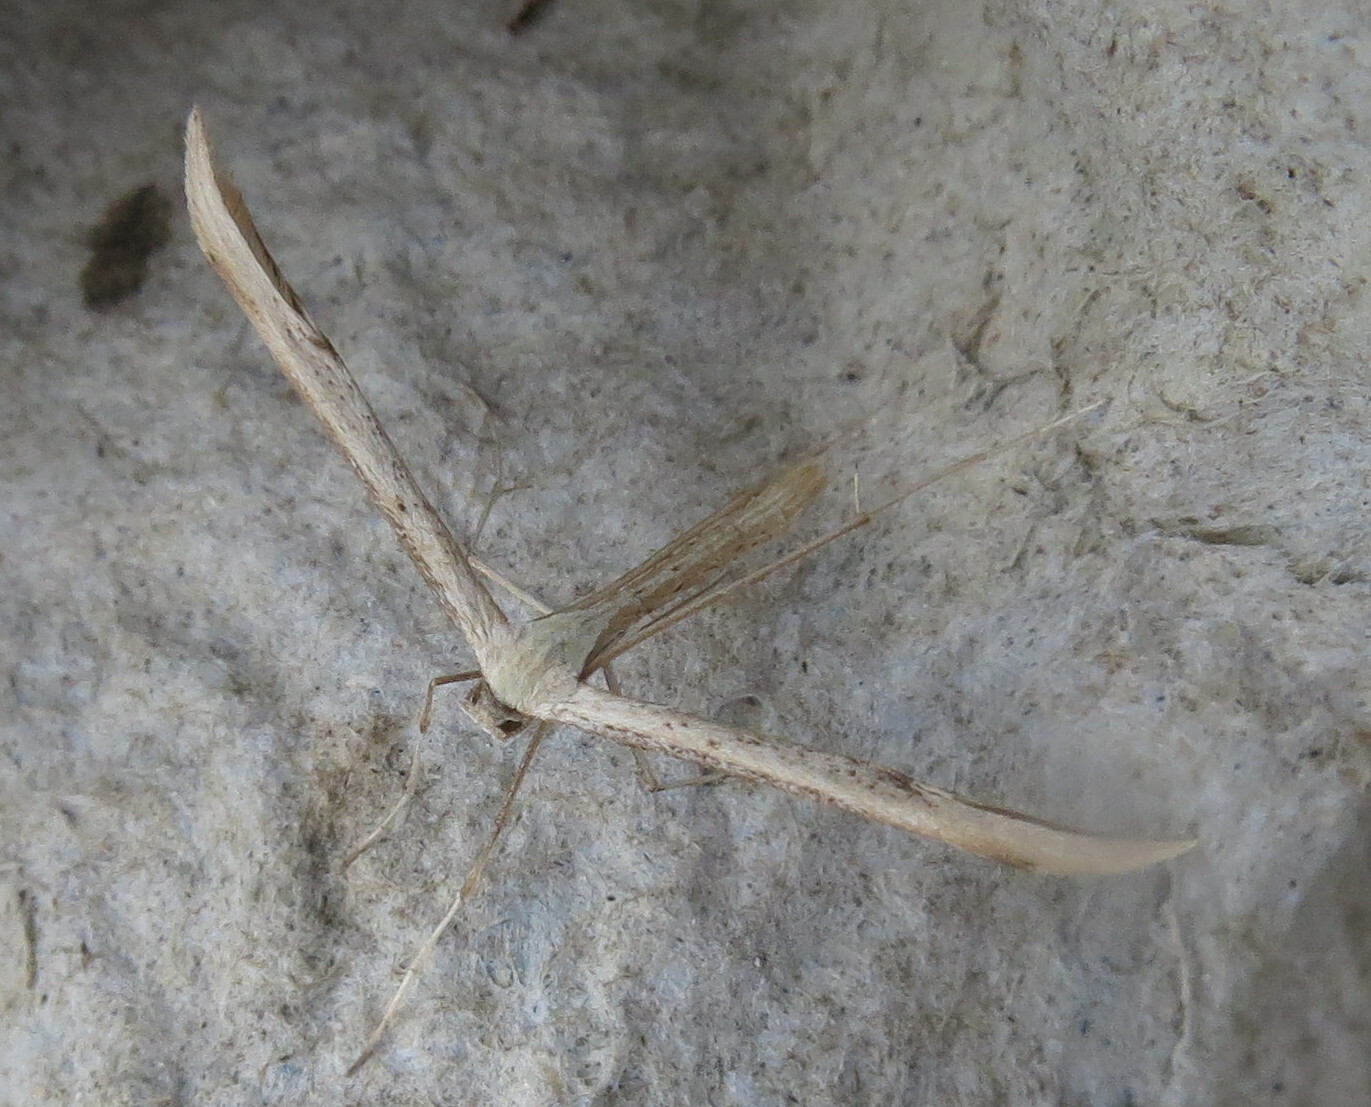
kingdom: Animalia
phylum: Arthropoda
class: Insecta
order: Lepidoptera
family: Pterophoridae
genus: Emmelina
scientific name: Emmelina monodactyla
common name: Common plume
